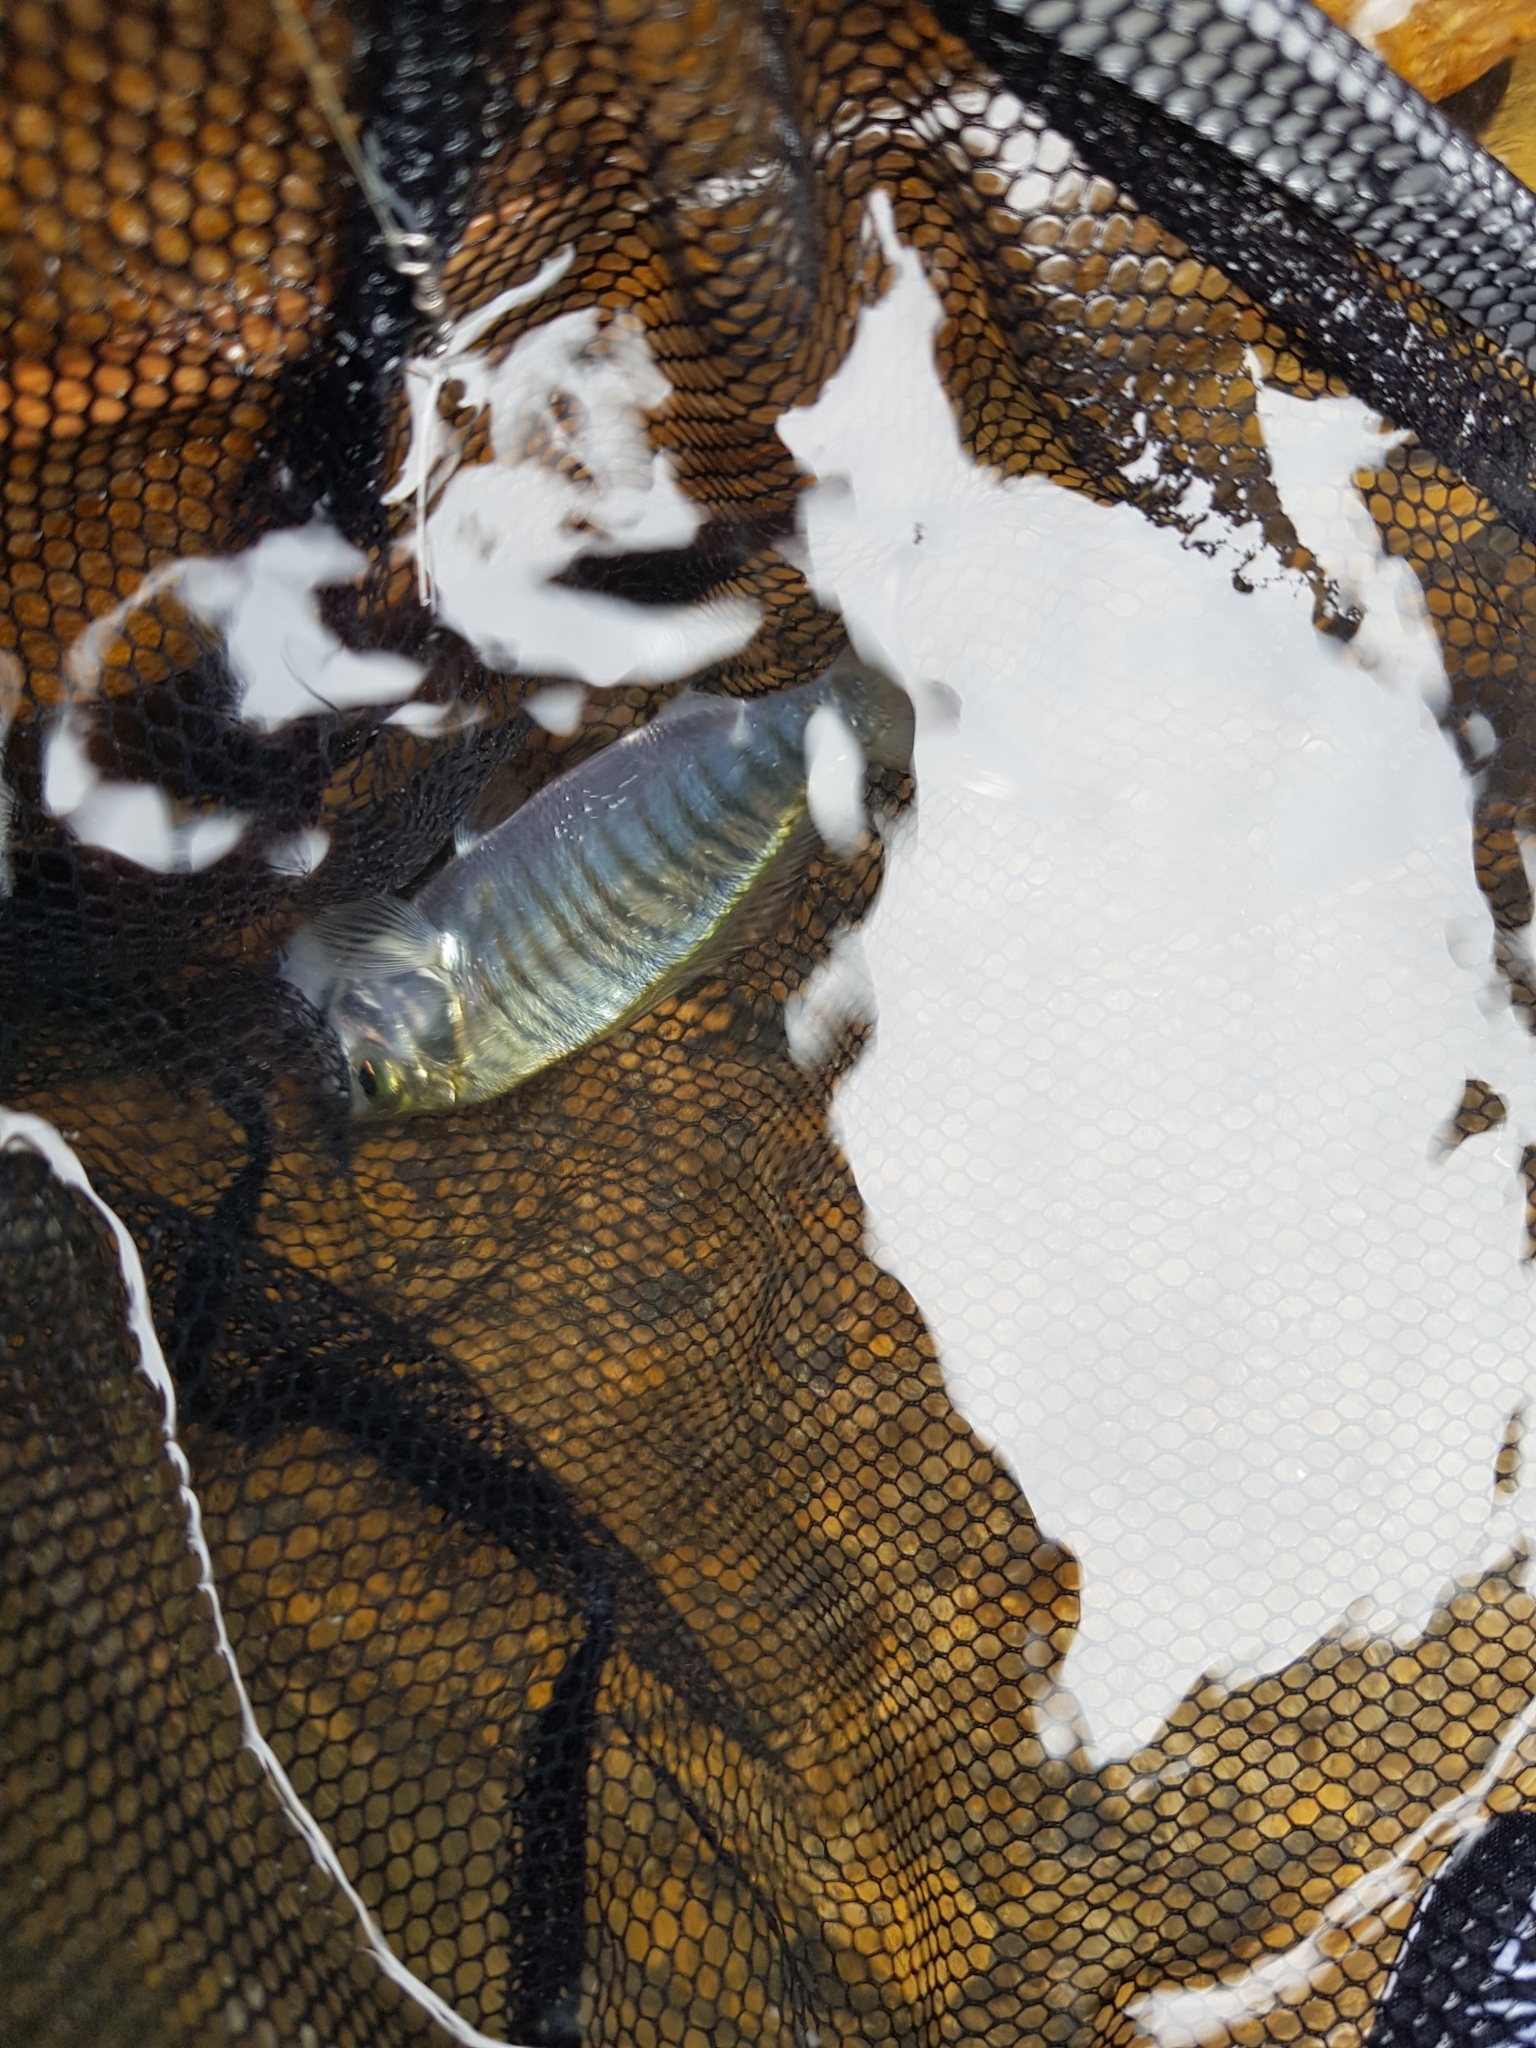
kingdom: Animalia
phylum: Chordata
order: Perciformes
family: Arripidae
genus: Arripis
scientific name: Arripis georgianus
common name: Australian herring
